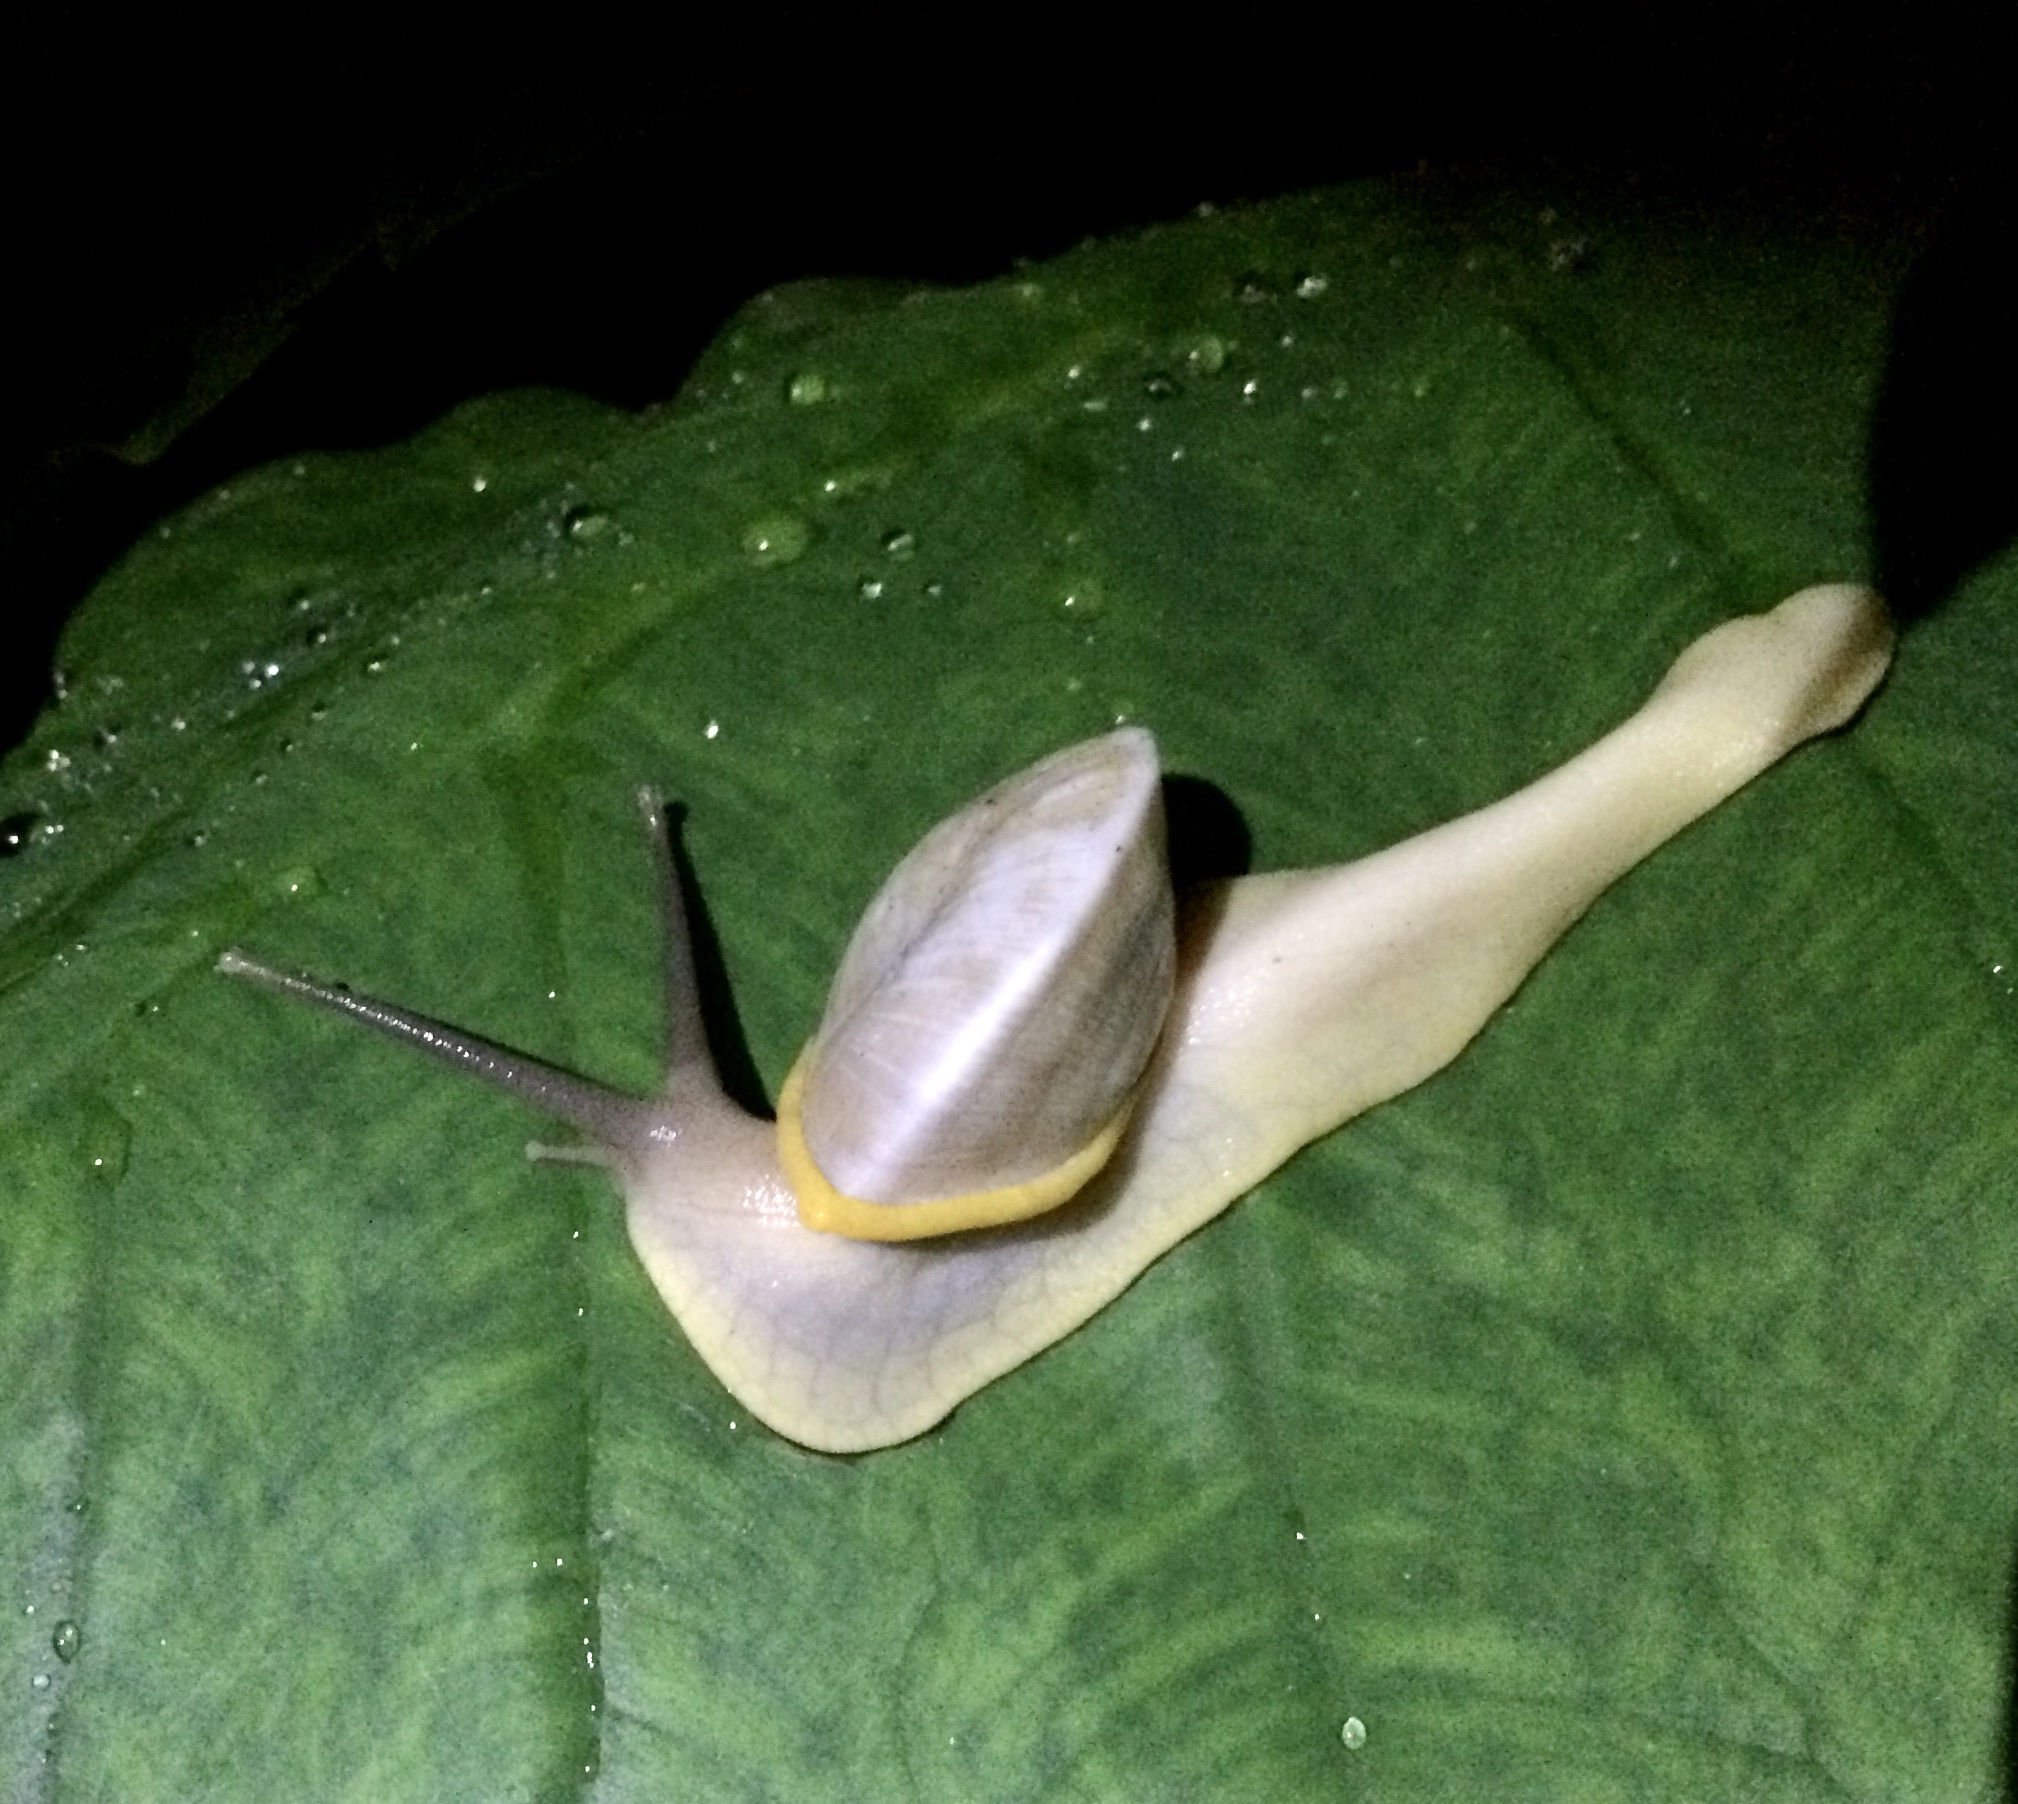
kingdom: Animalia
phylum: Mollusca
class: Gastropoda
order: Stylommatophora
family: Sagdidae
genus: Parthena
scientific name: Parthena acutangula
